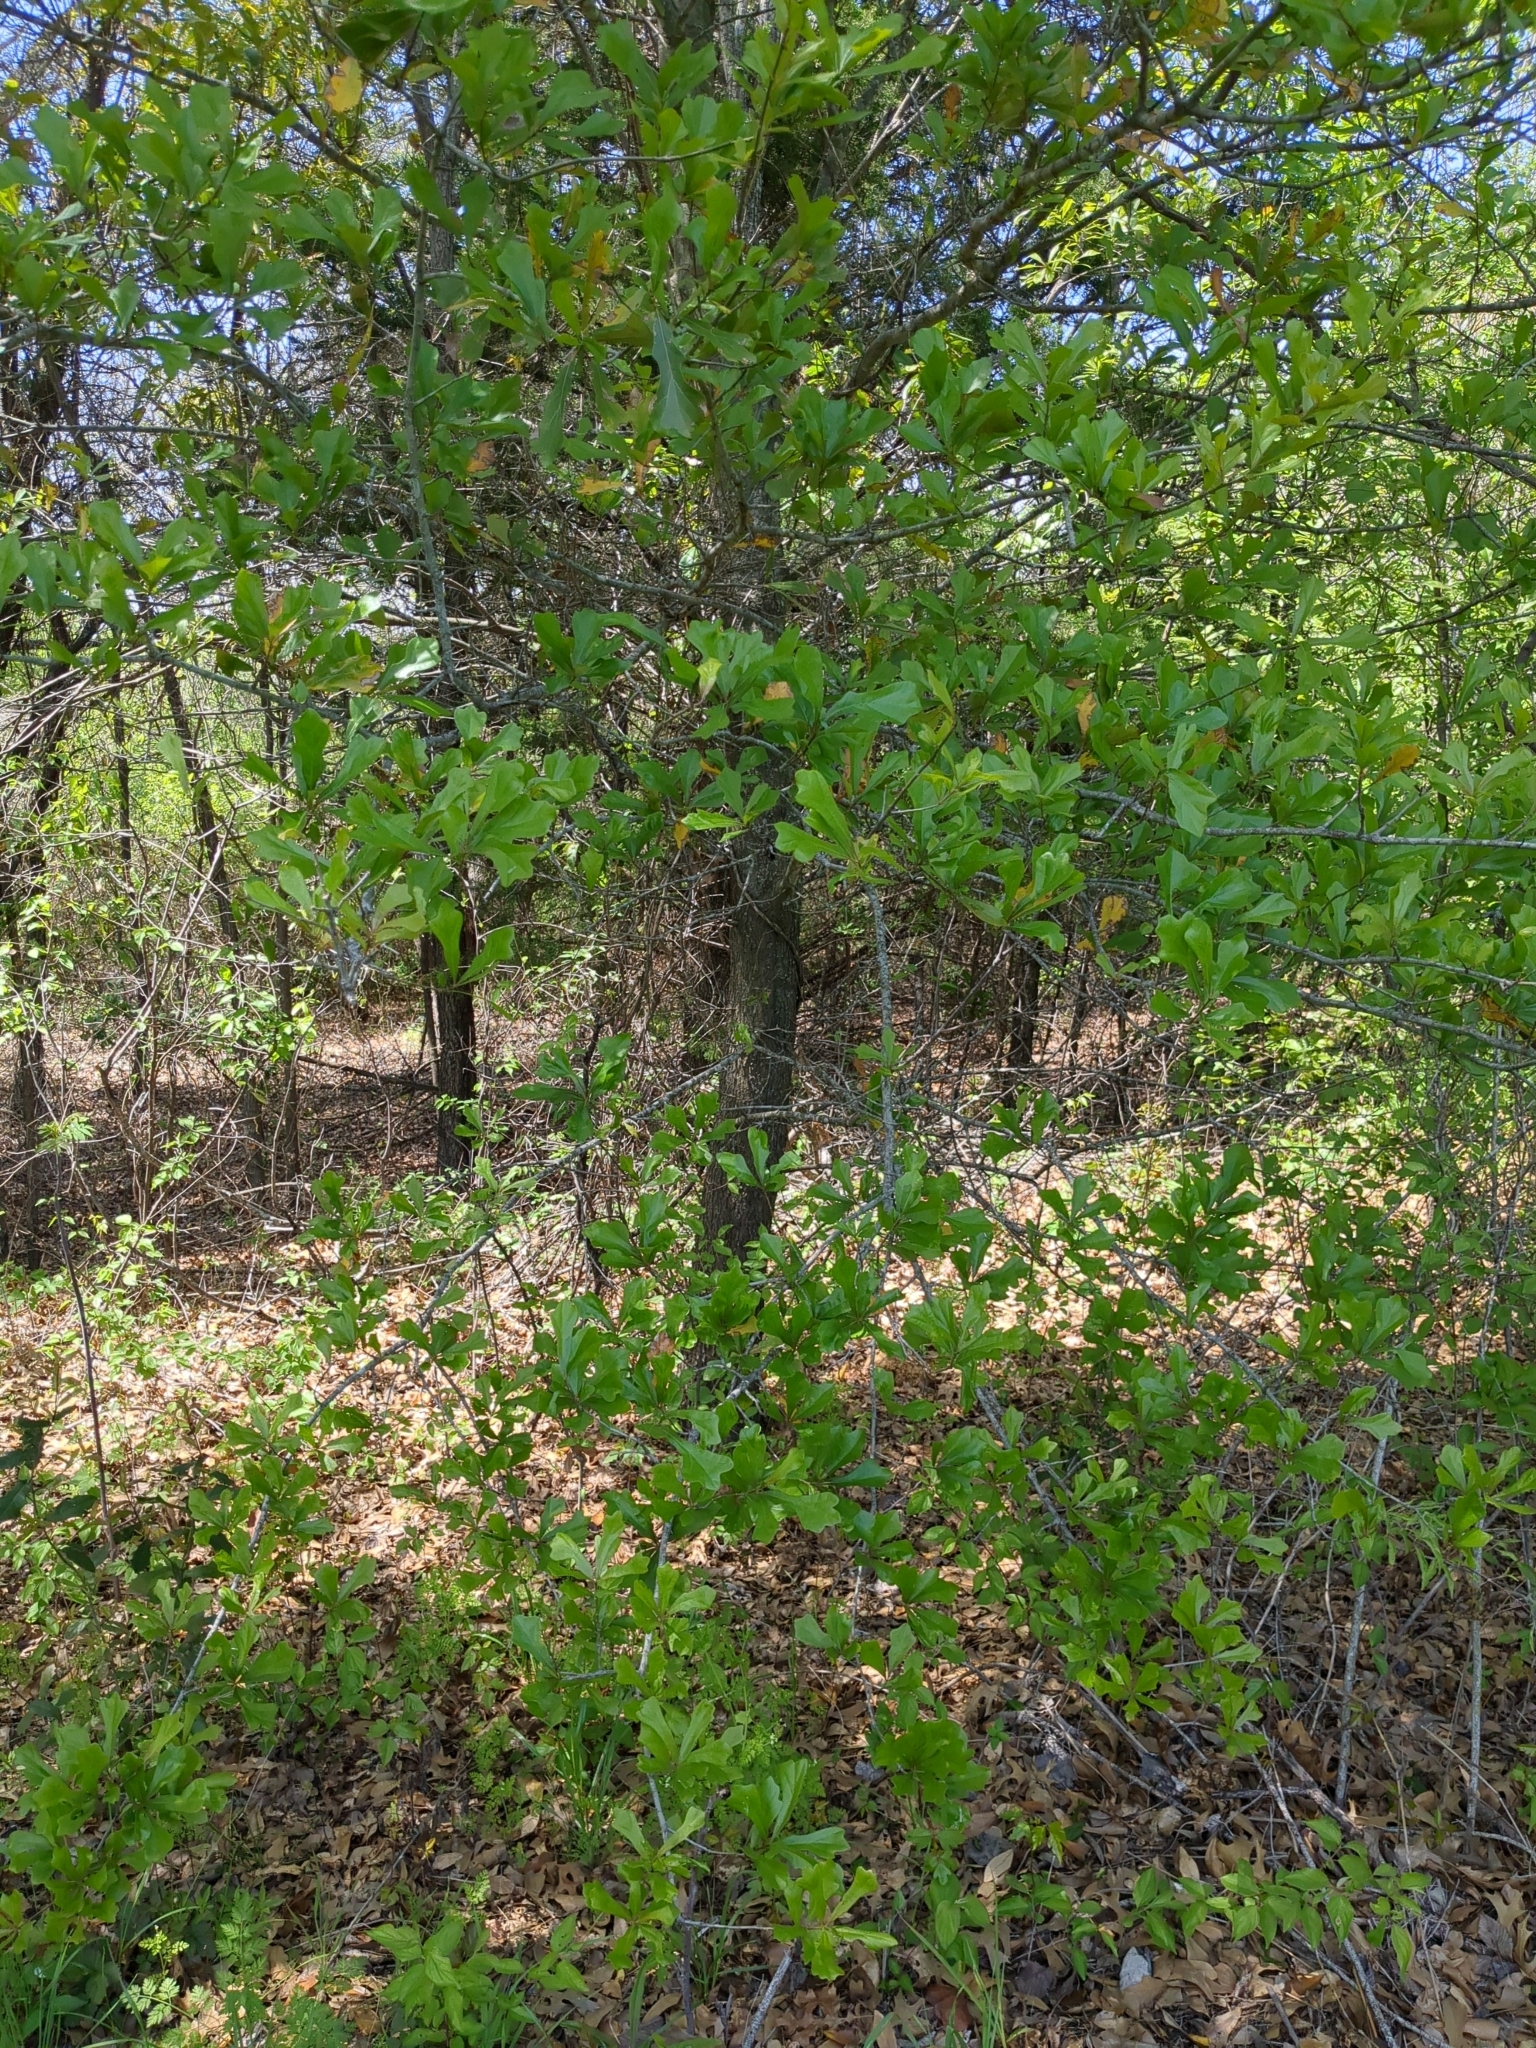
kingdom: Plantae
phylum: Tracheophyta
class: Magnoliopsida
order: Fagales
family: Fagaceae
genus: Quercus
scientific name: Quercus nigra
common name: Water oak
